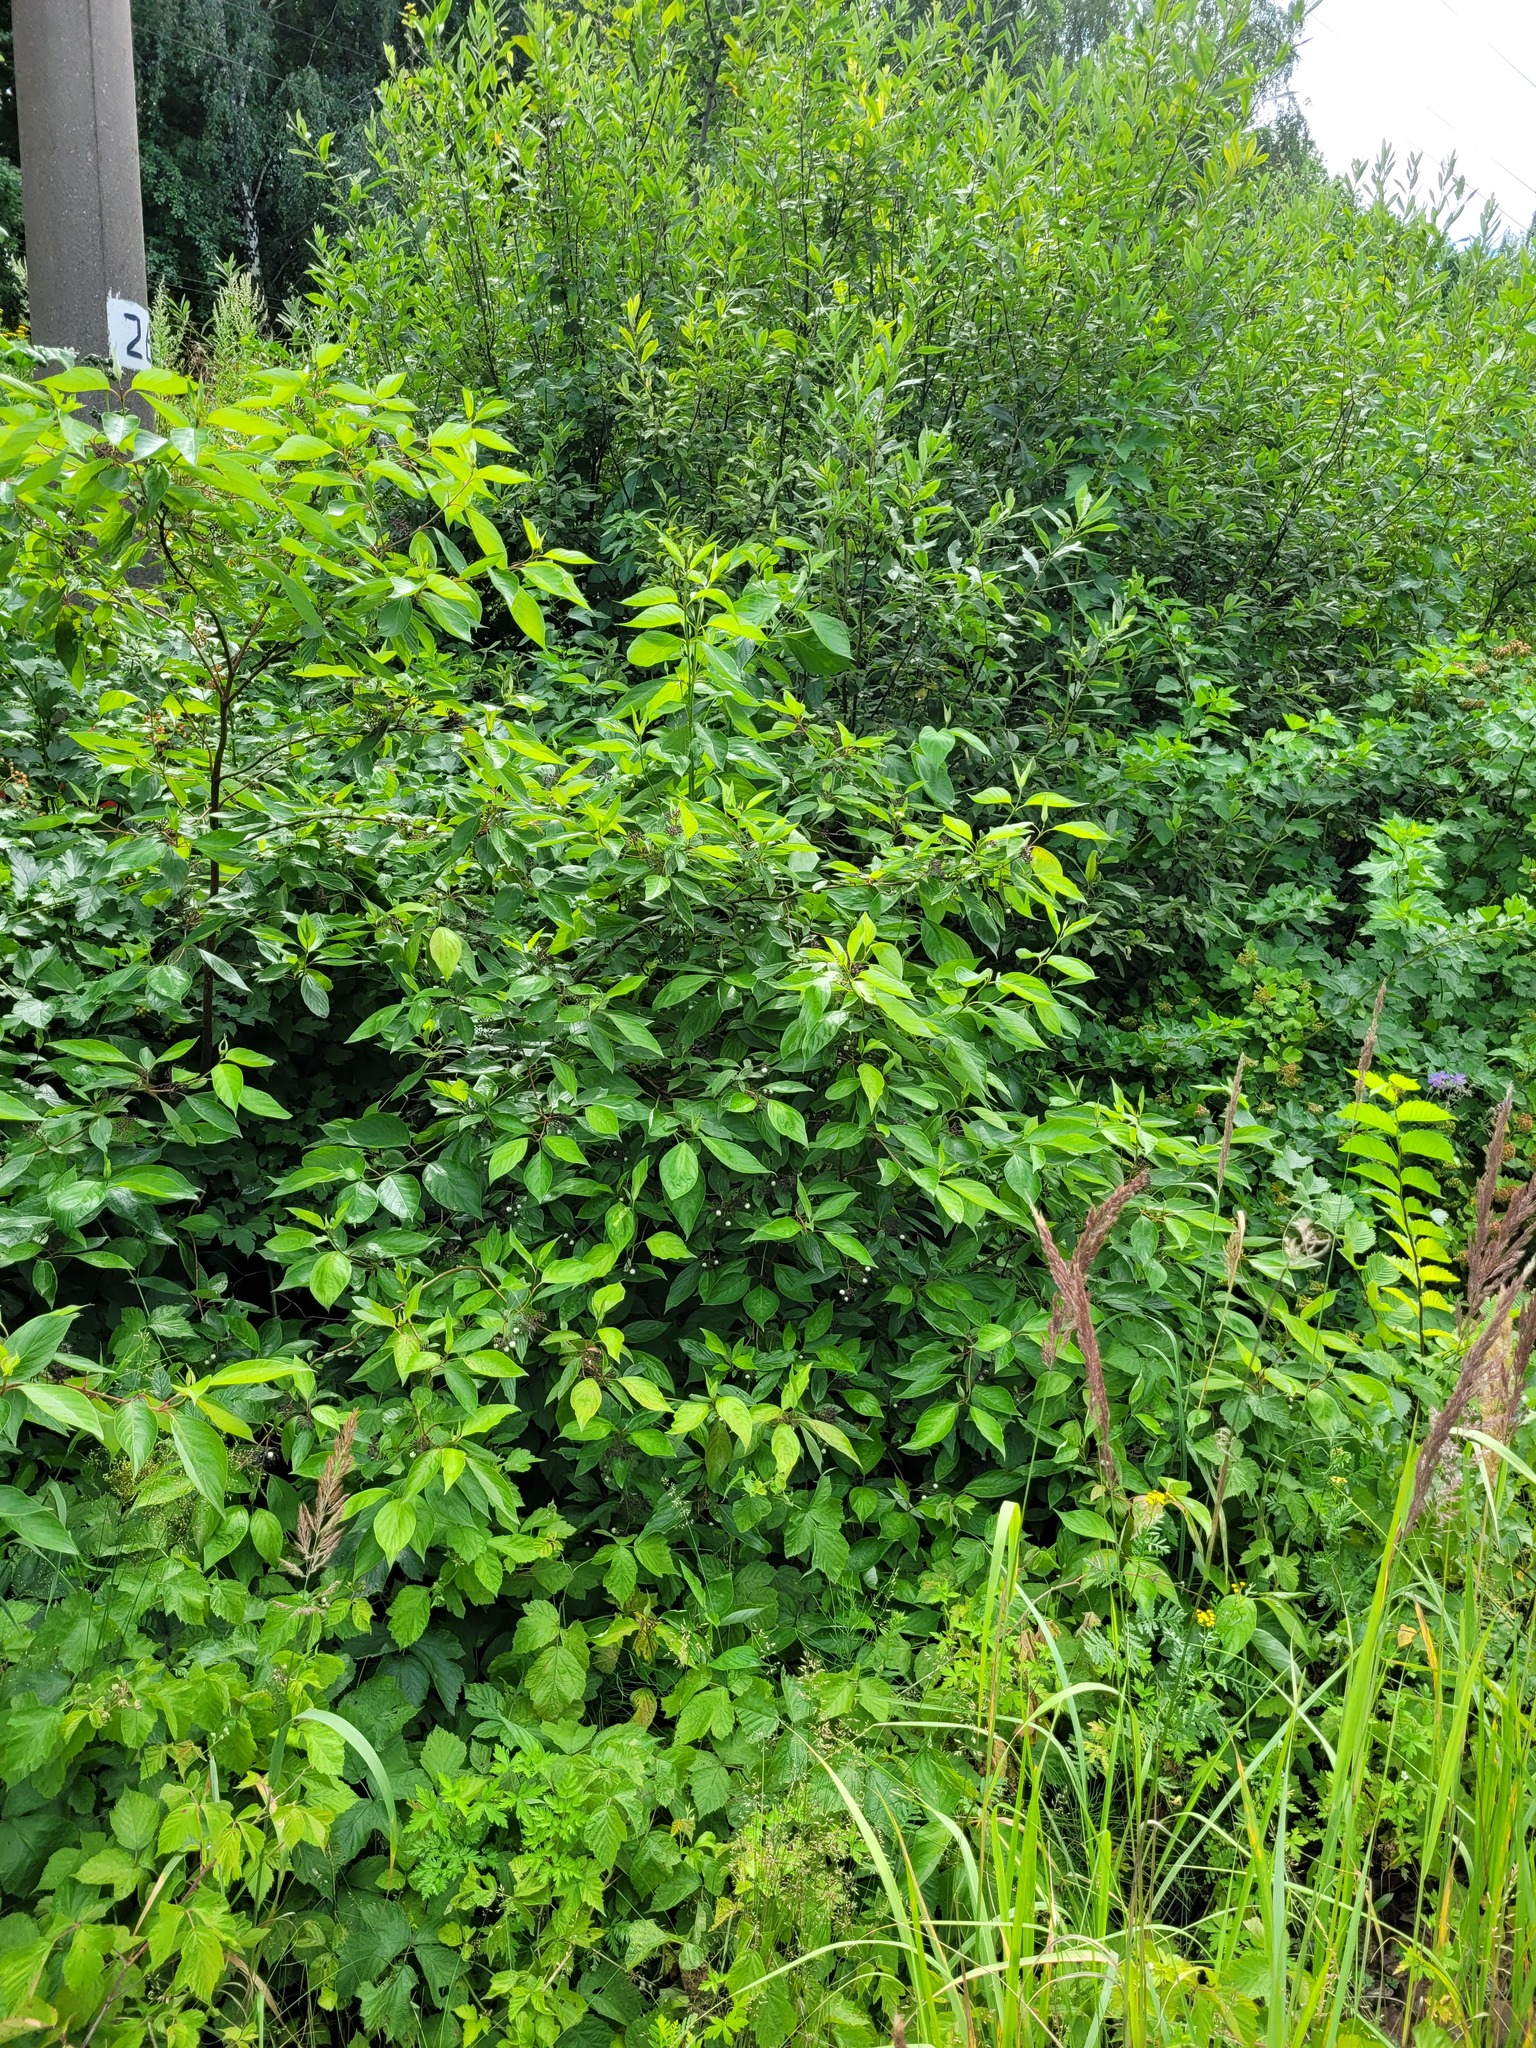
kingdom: Plantae
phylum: Tracheophyta
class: Magnoliopsida
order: Cornales
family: Cornaceae
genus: Cornus
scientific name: Cornus alba
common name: White dogwood
